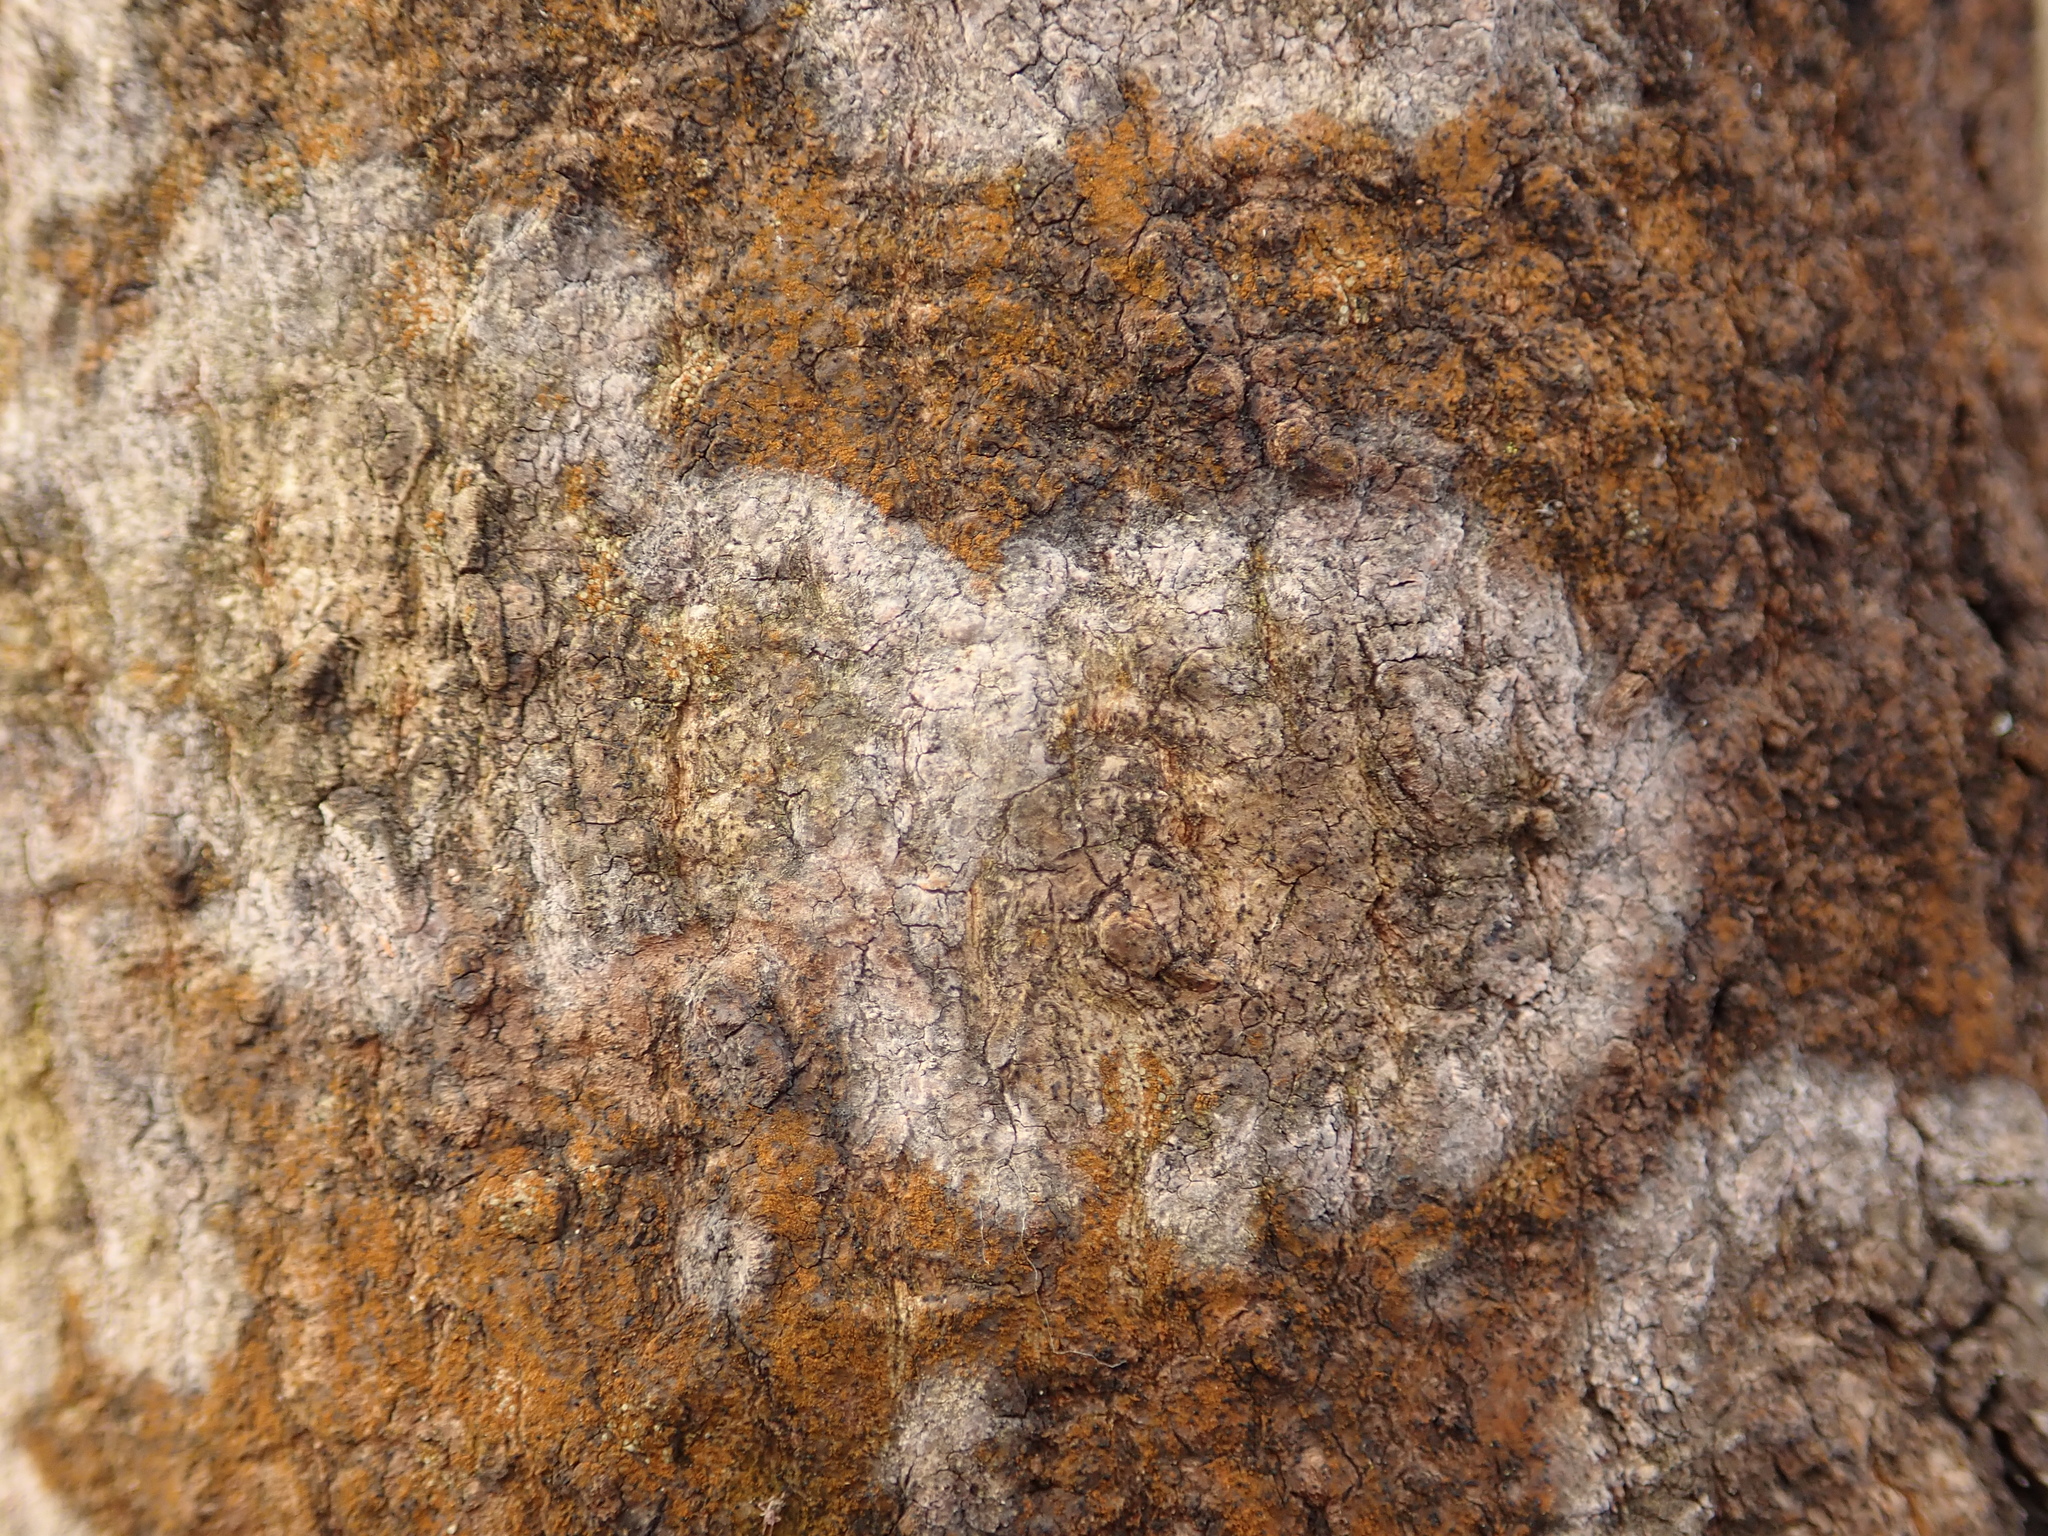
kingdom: Fungi
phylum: Basidiomycota
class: Agaricomycetes
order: Atheliales
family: Atheliaceae
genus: Athelia
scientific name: Athelia arachnoidea
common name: Candelabra duster
